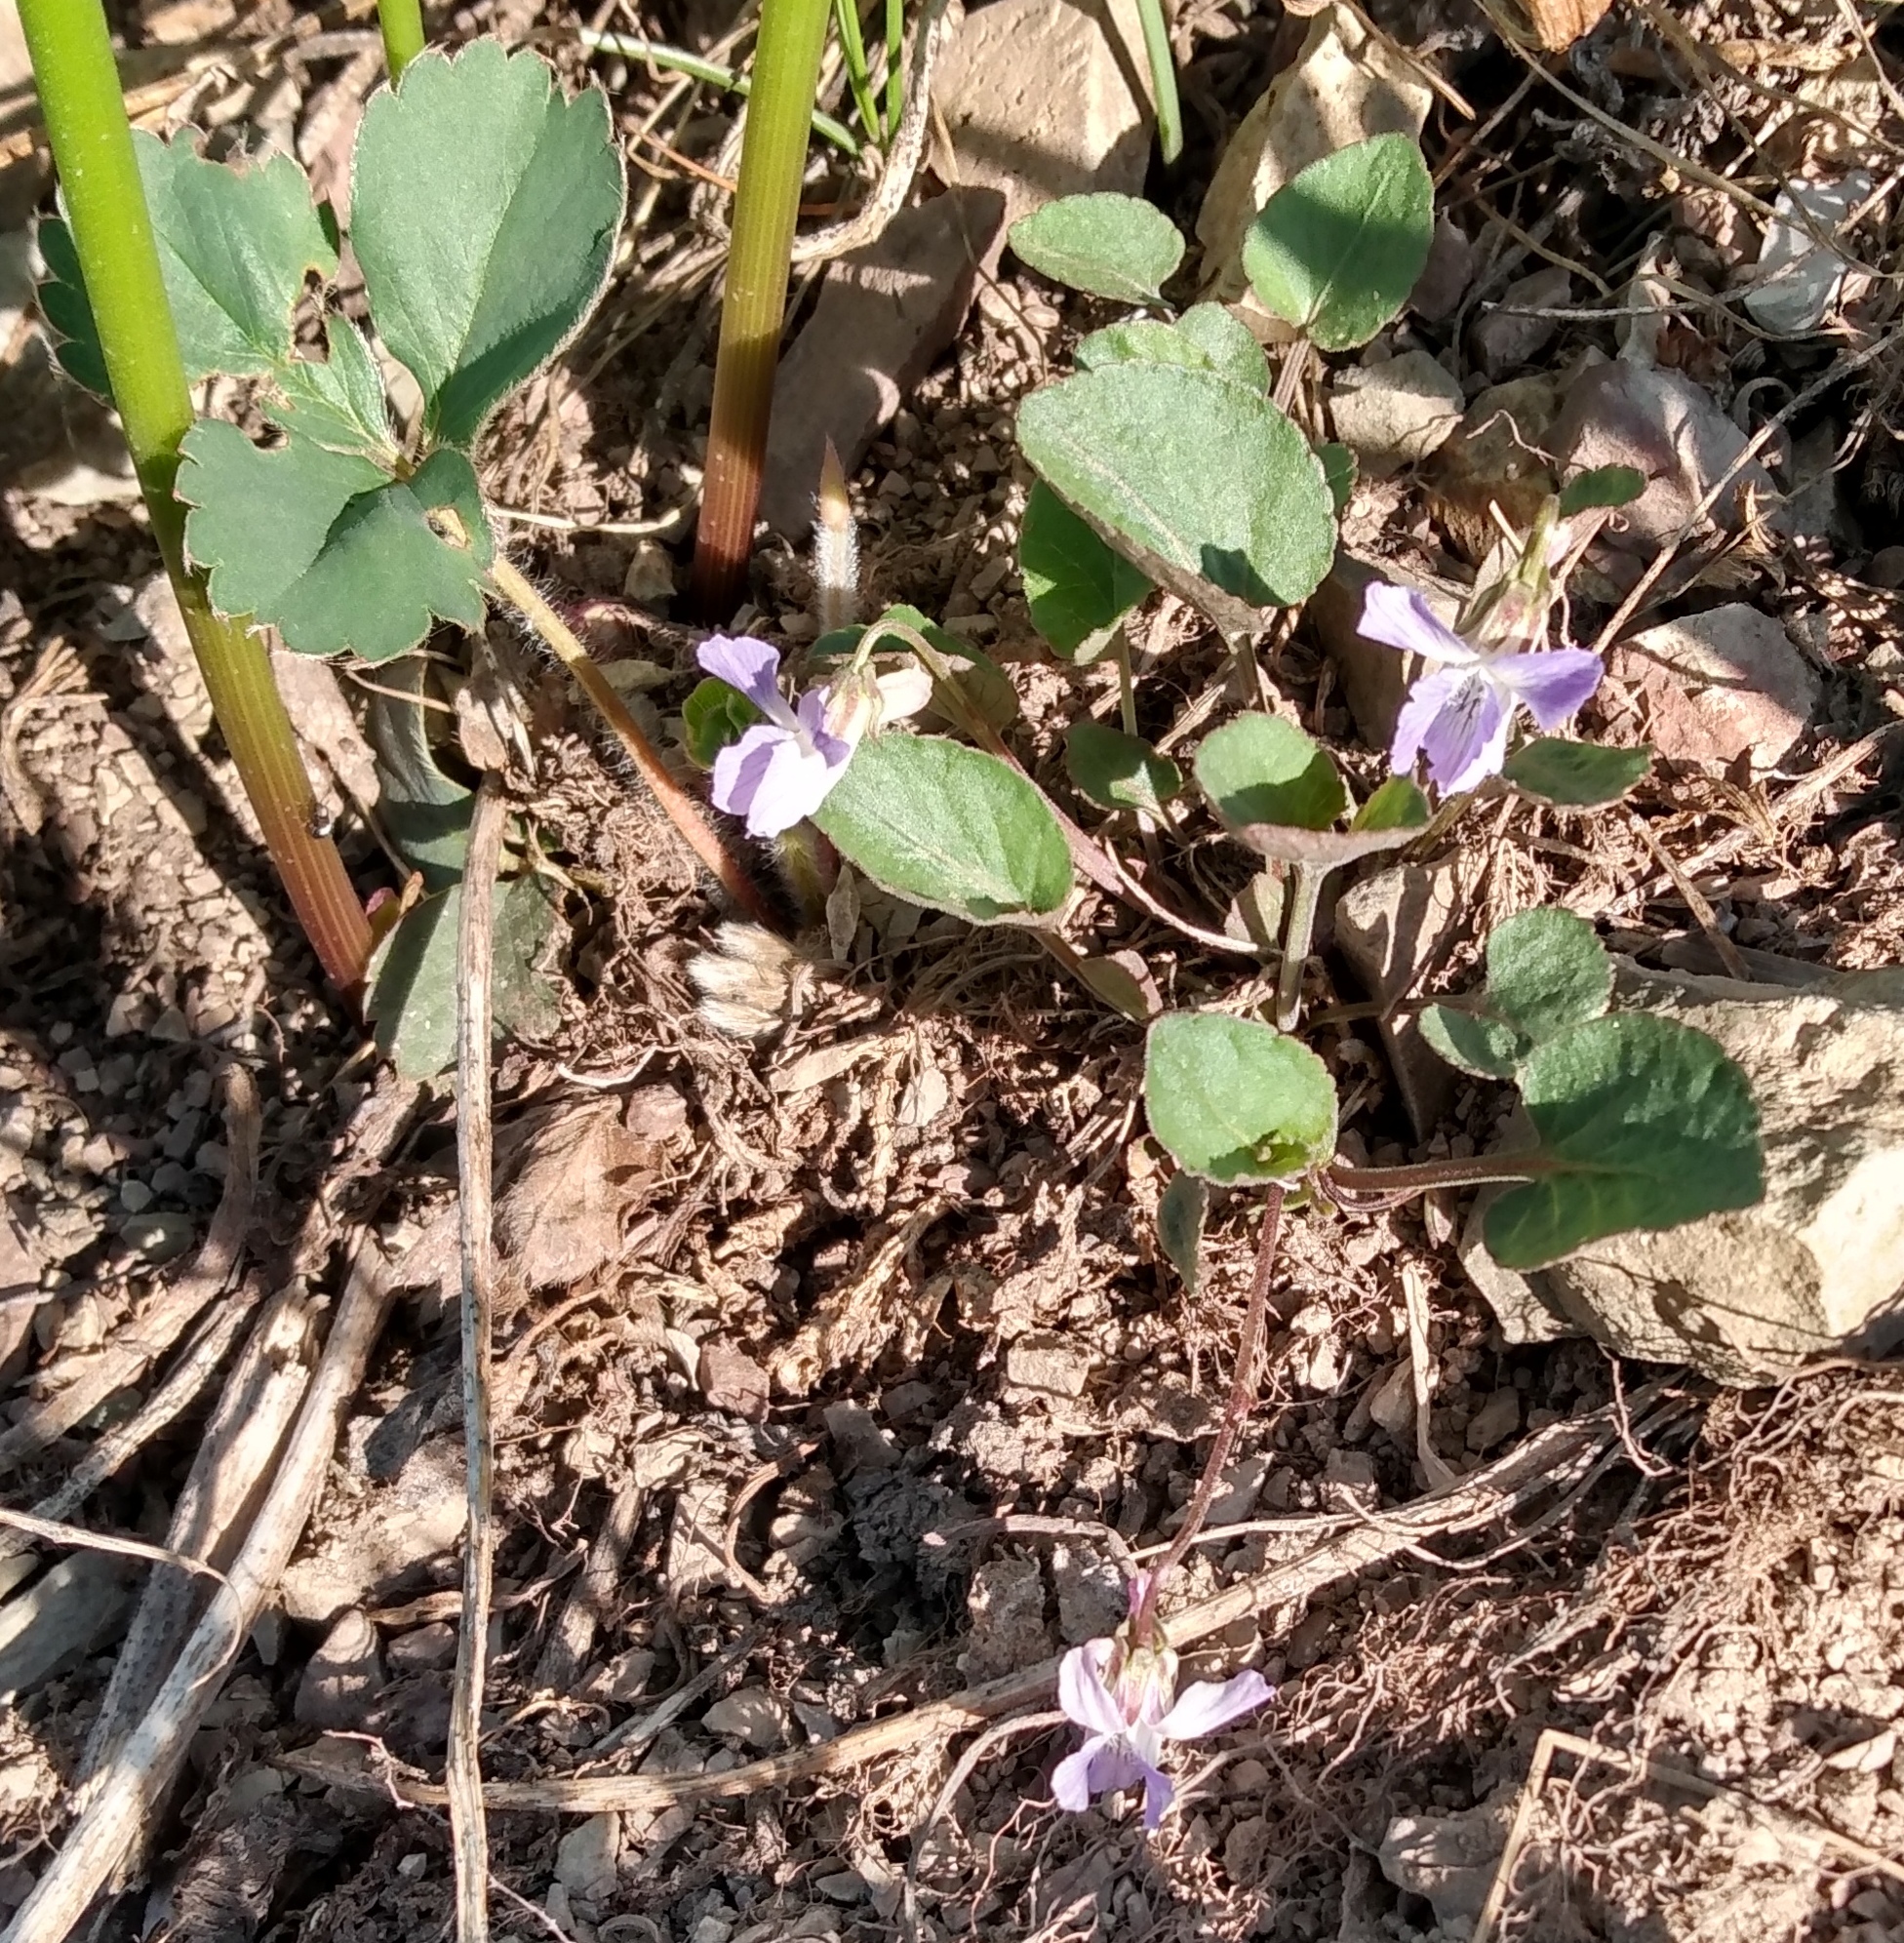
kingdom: Plantae
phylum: Tracheophyta
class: Magnoliopsida
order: Malpighiales
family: Violaceae
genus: Viola
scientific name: Viola adunca
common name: Sand violet
